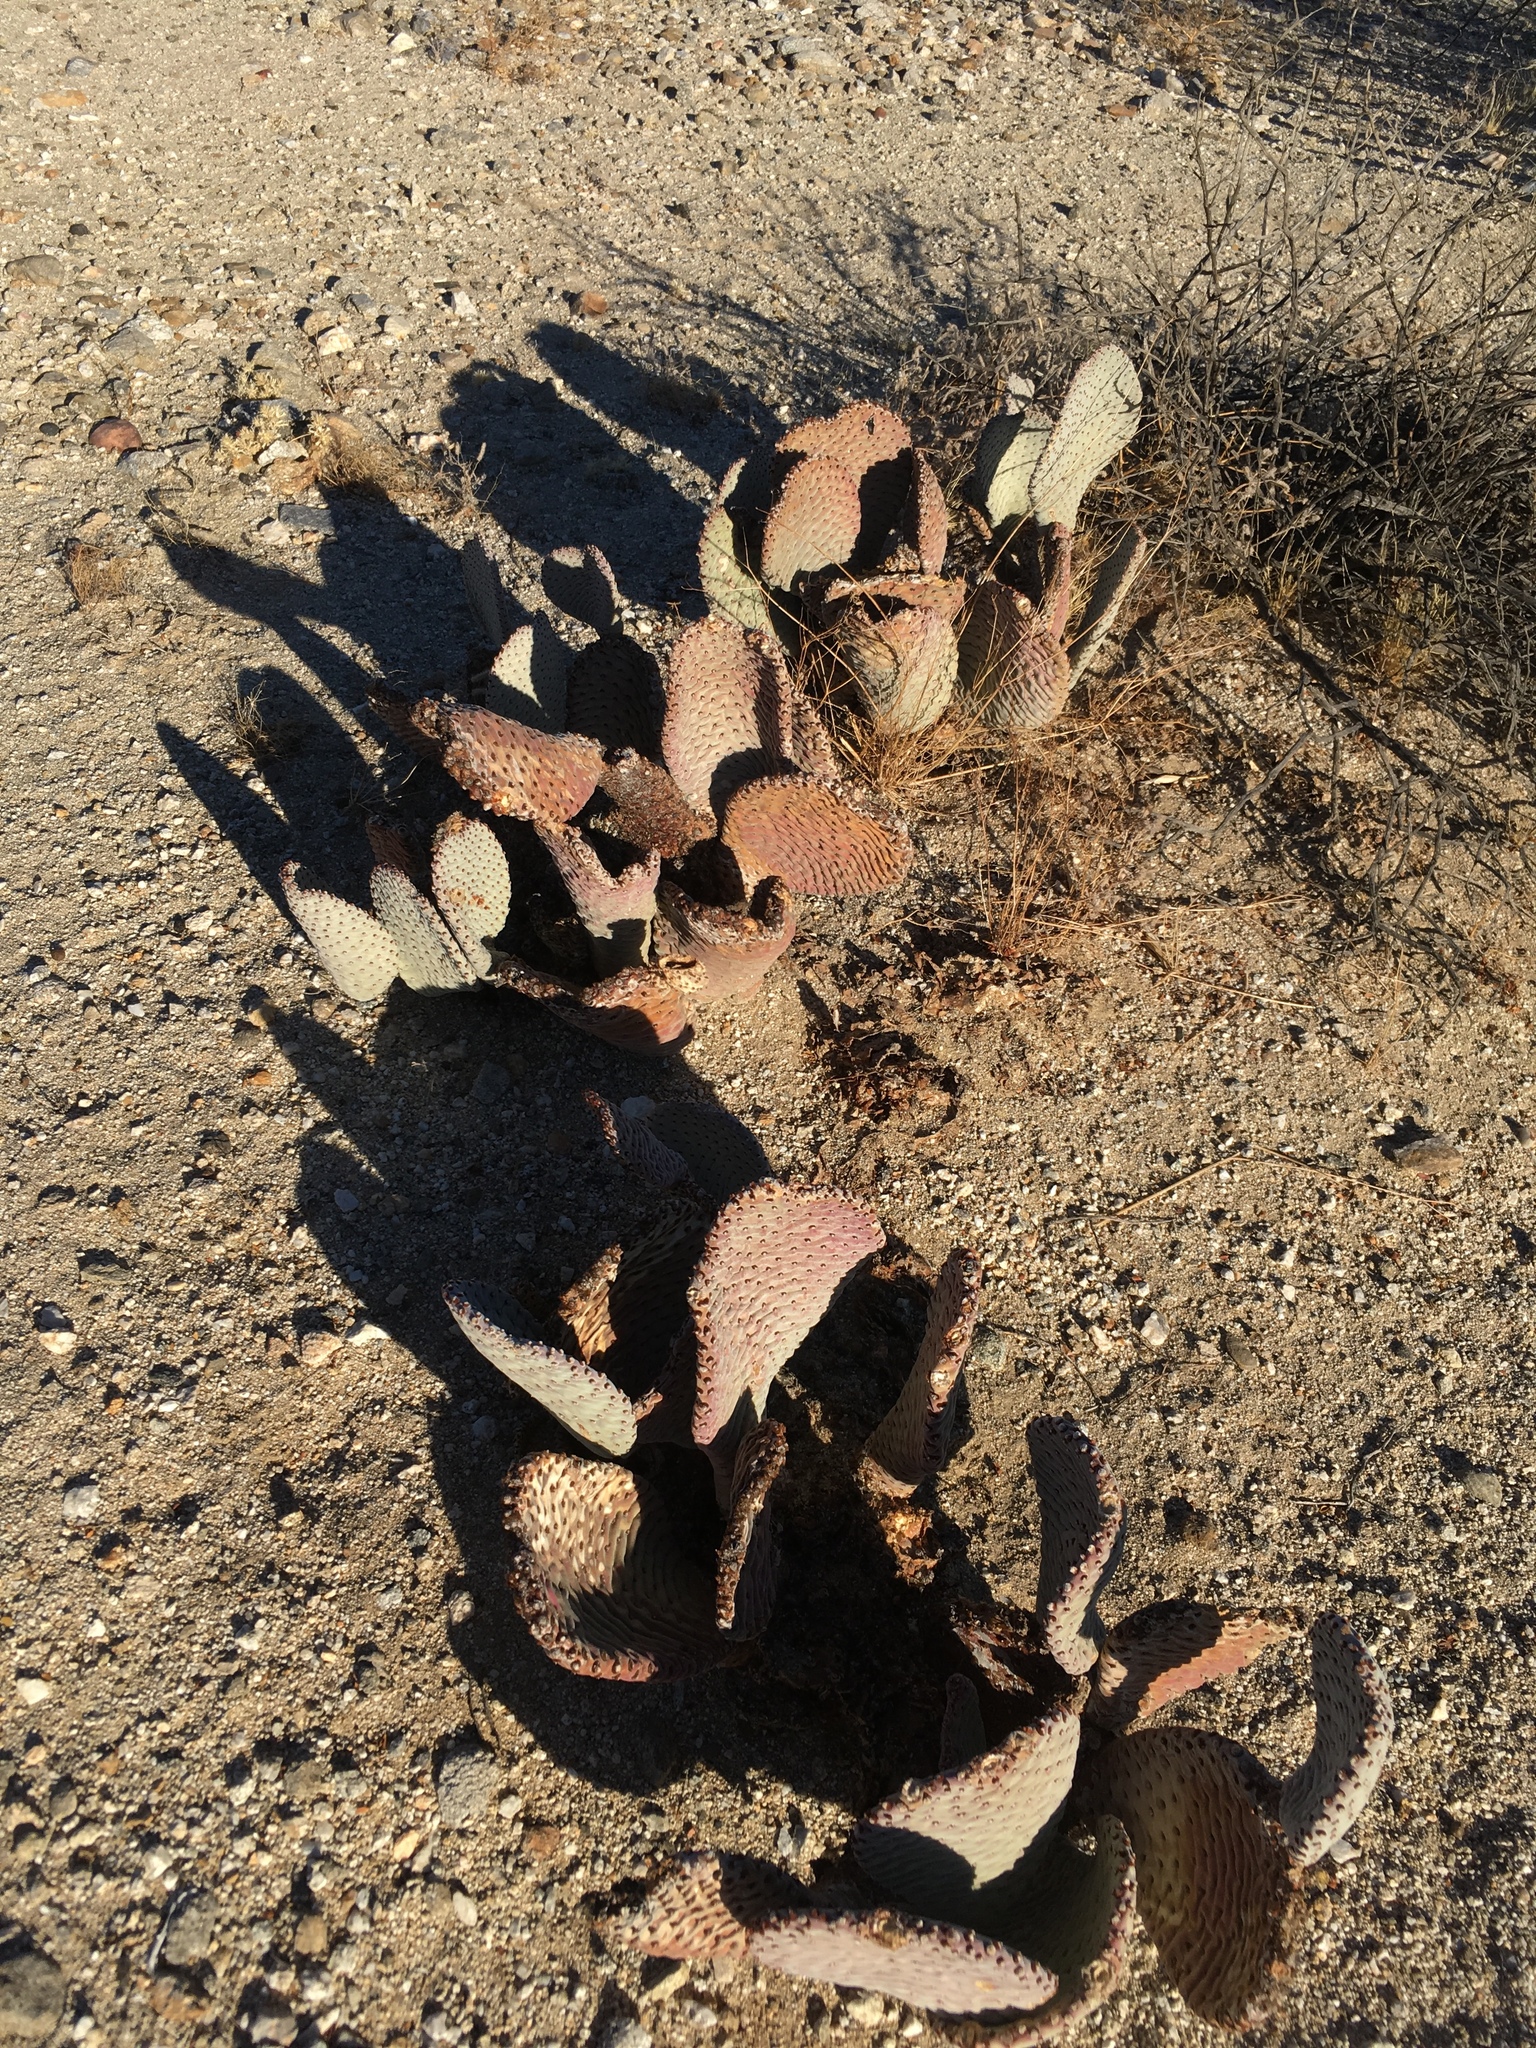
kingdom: Plantae
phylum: Tracheophyta
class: Magnoliopsida
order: Caryophyllales
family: Cactaceae
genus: Opuntia
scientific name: Opuntia basilaris
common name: Beavertail prickly-pear
